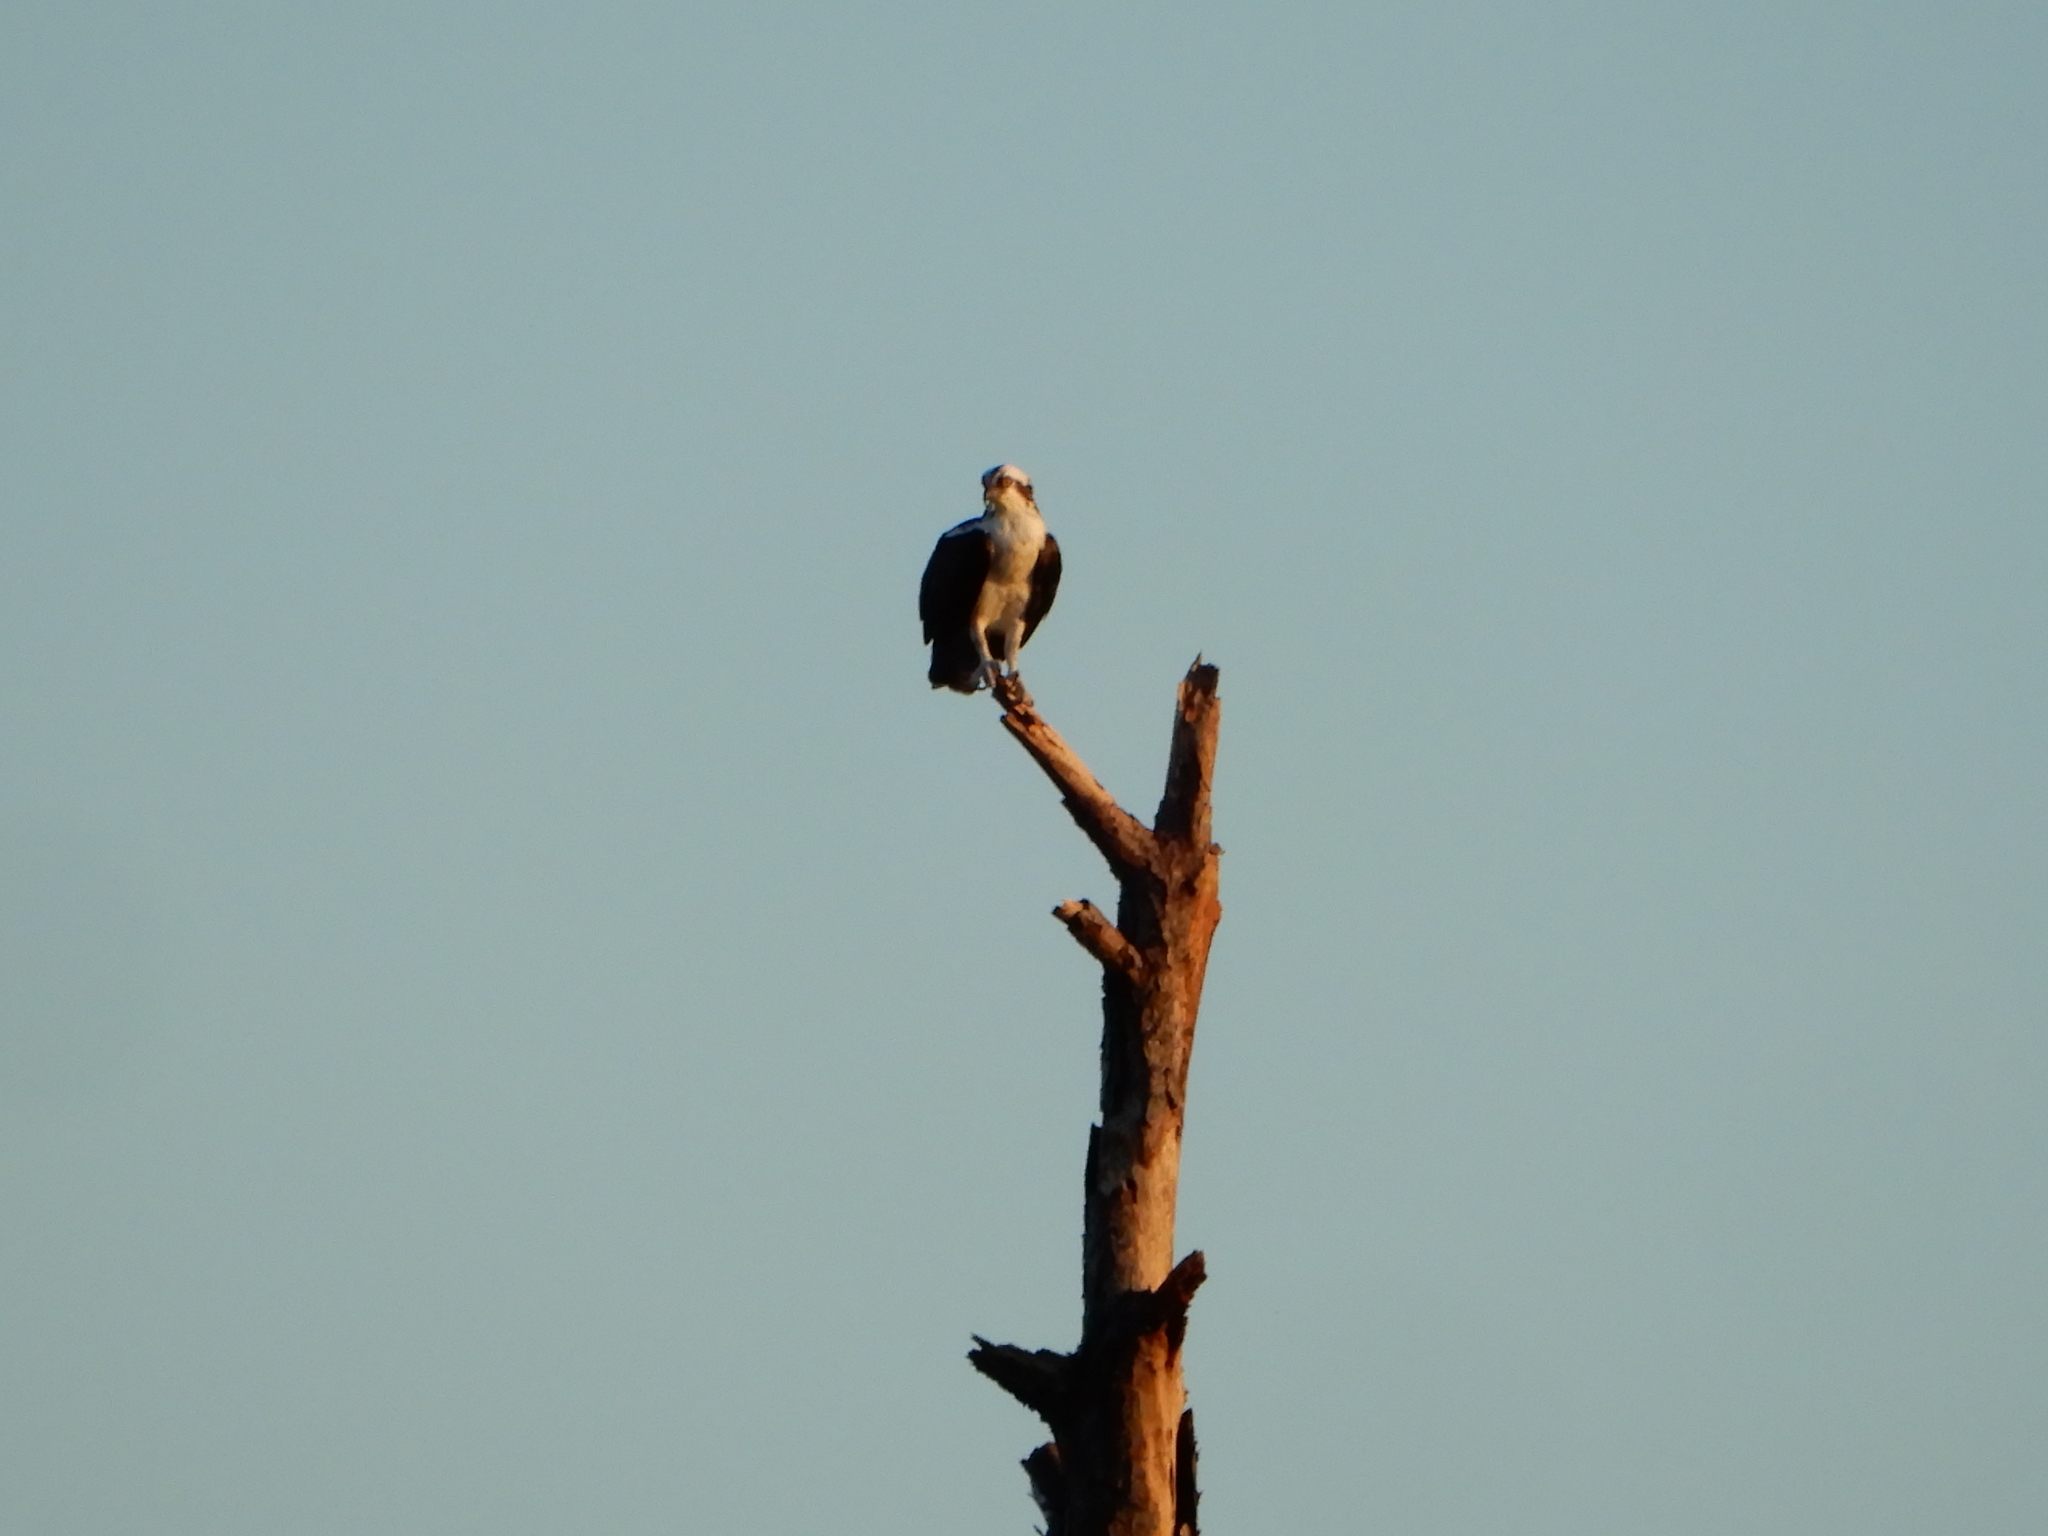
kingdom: Animalia
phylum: Chordata
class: Aves
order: Accipitriformes
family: Pandionidae
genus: Pandion
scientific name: Pandion haliaetus
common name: Osprey
